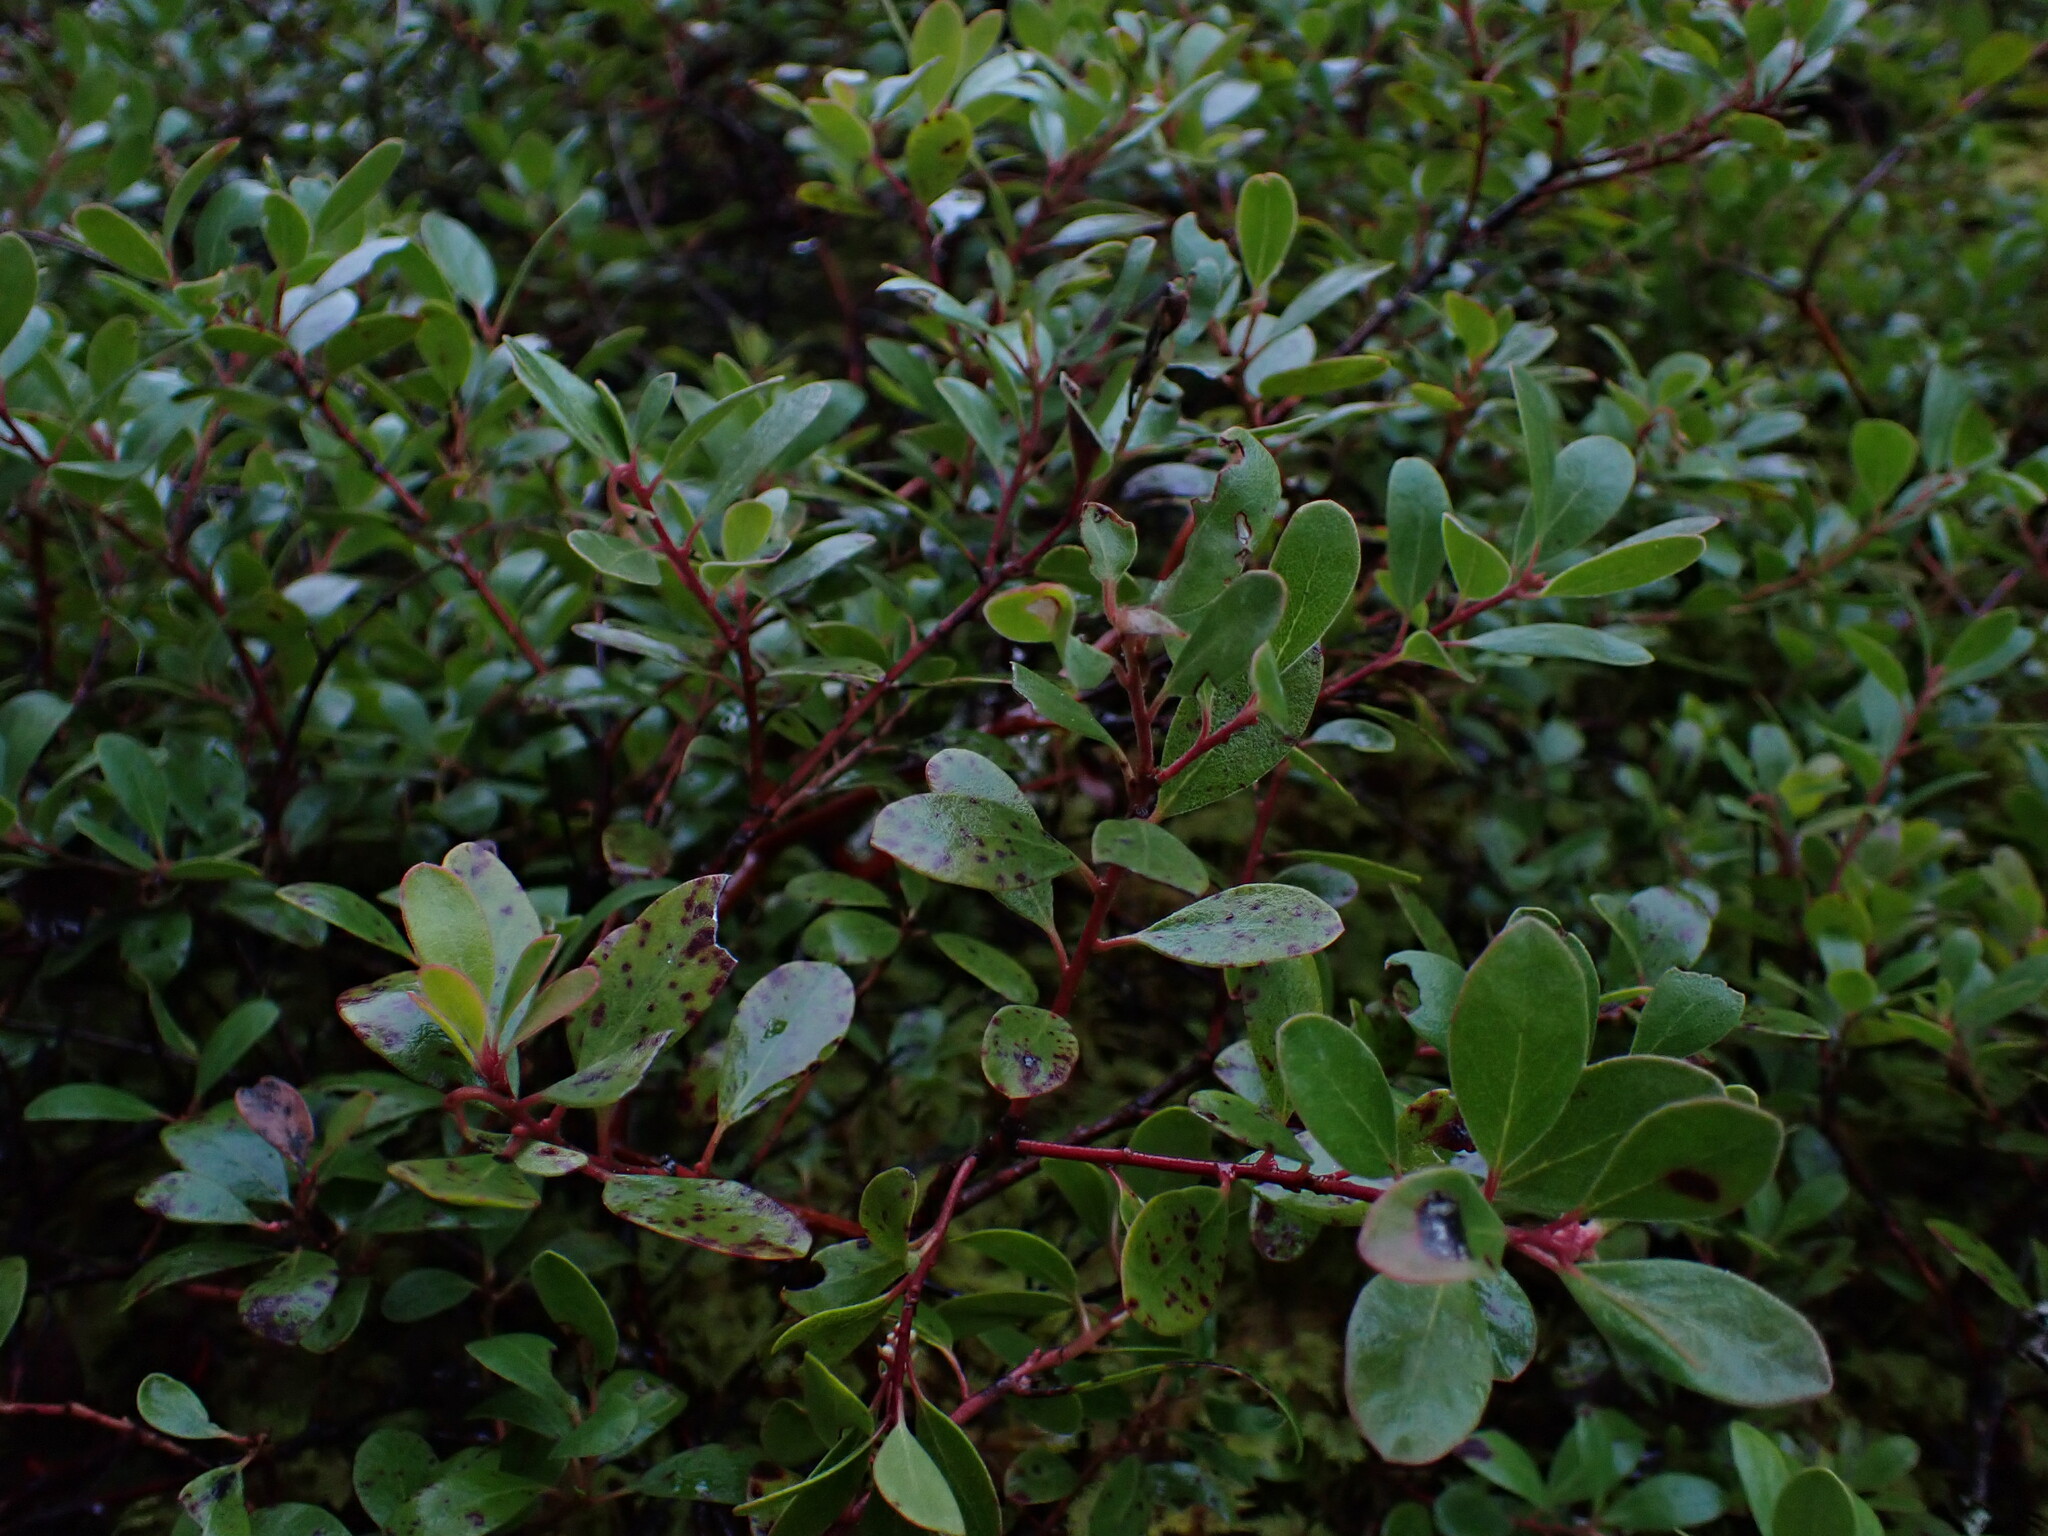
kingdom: Plantae
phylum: Tracheophyta
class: Magnoliopsida
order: Ericales
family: Ericaceae
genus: Arctostaphylos
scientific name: Arctostaphylos uva-ursi
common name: Bearberry
